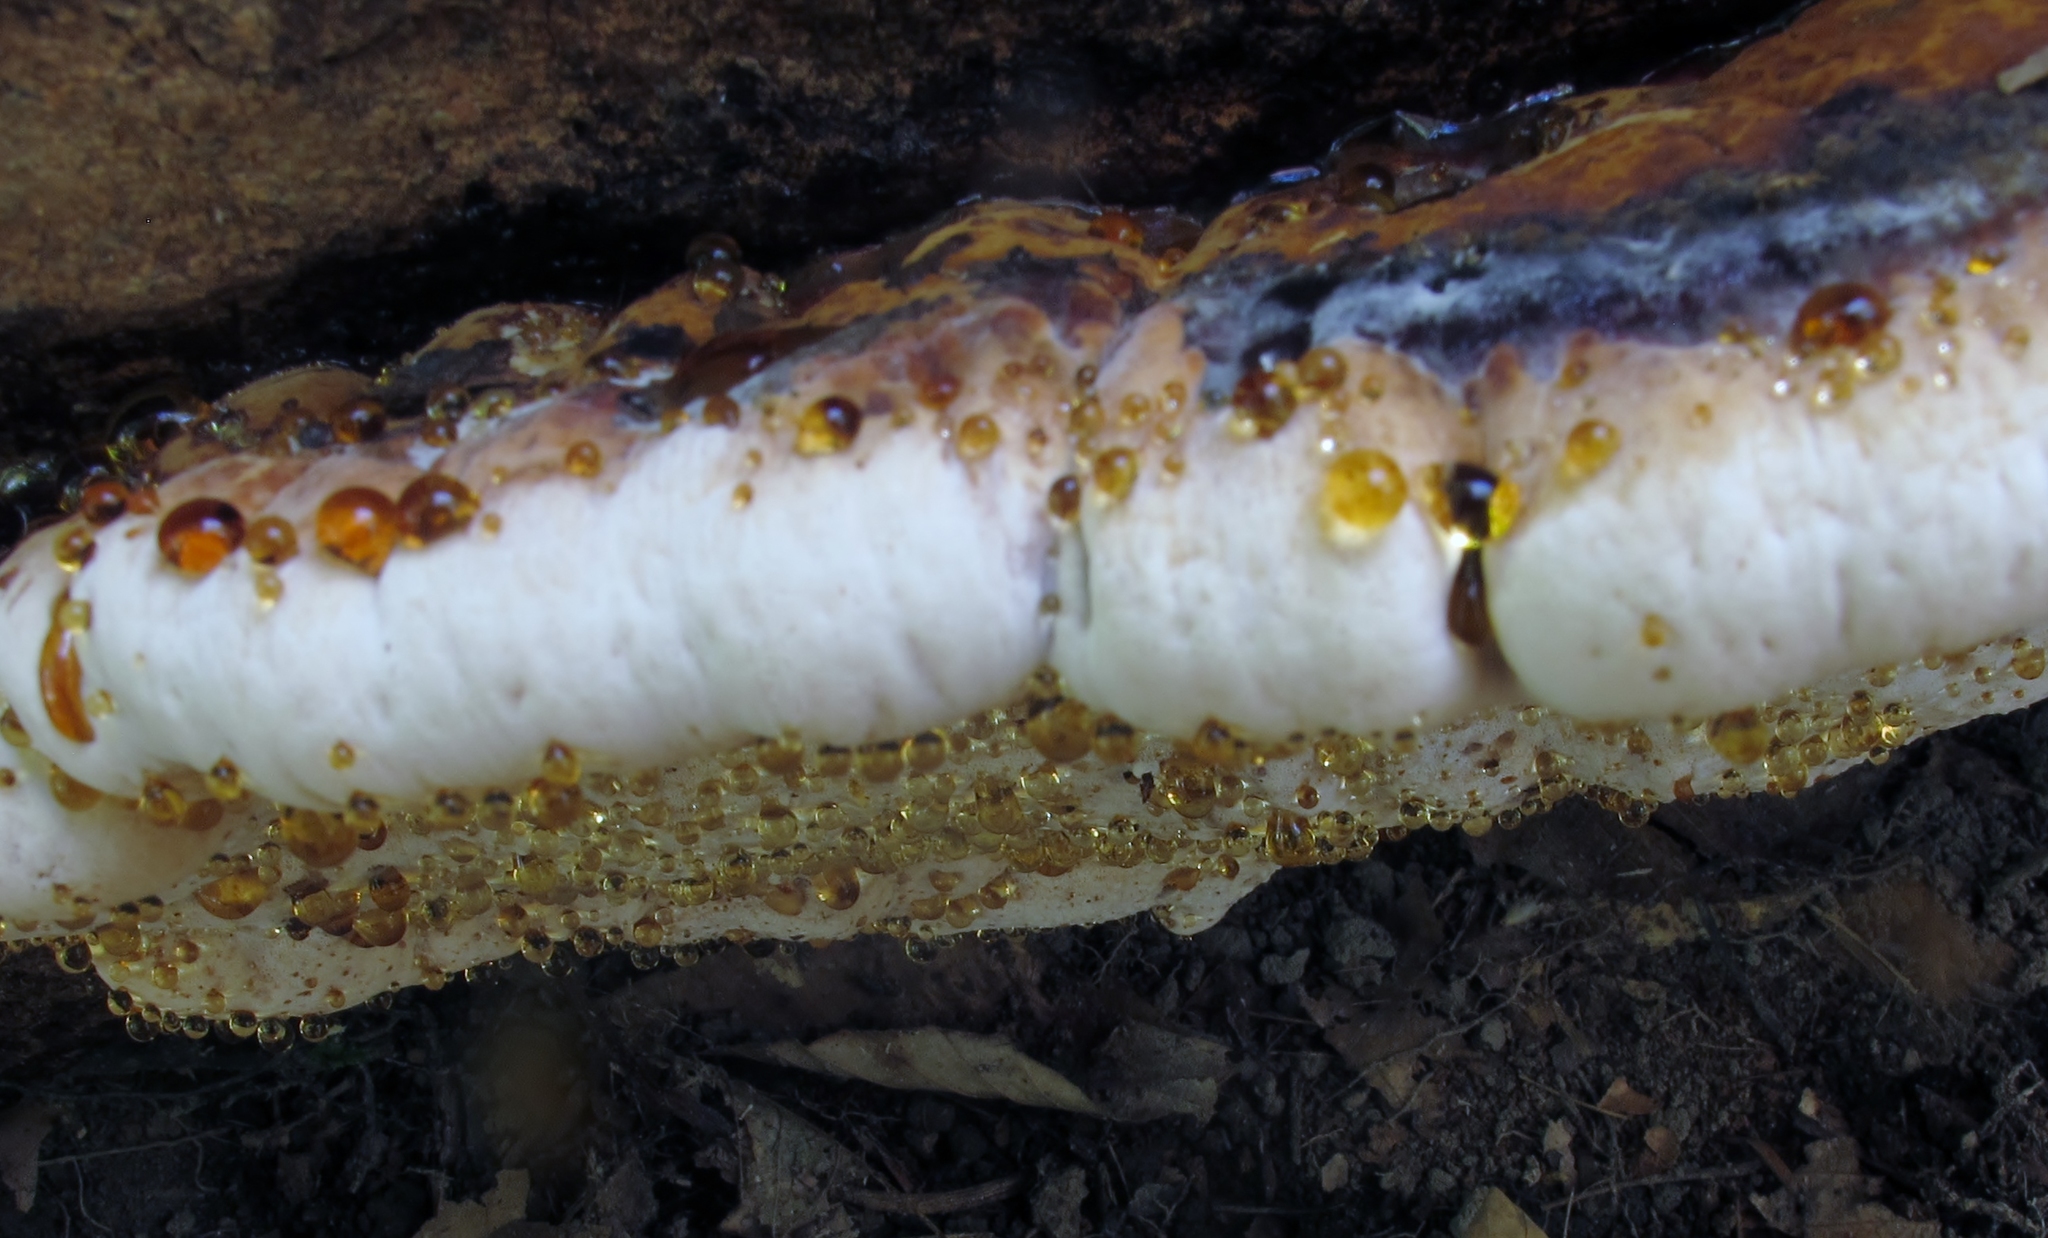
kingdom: Fungi
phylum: Basidiomycota
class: Agaricomycetes
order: Polyporales
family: Ischnodermataceae
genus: Ischnoderma
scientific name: Ischnoderma resinosum
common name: Resinous polypore
